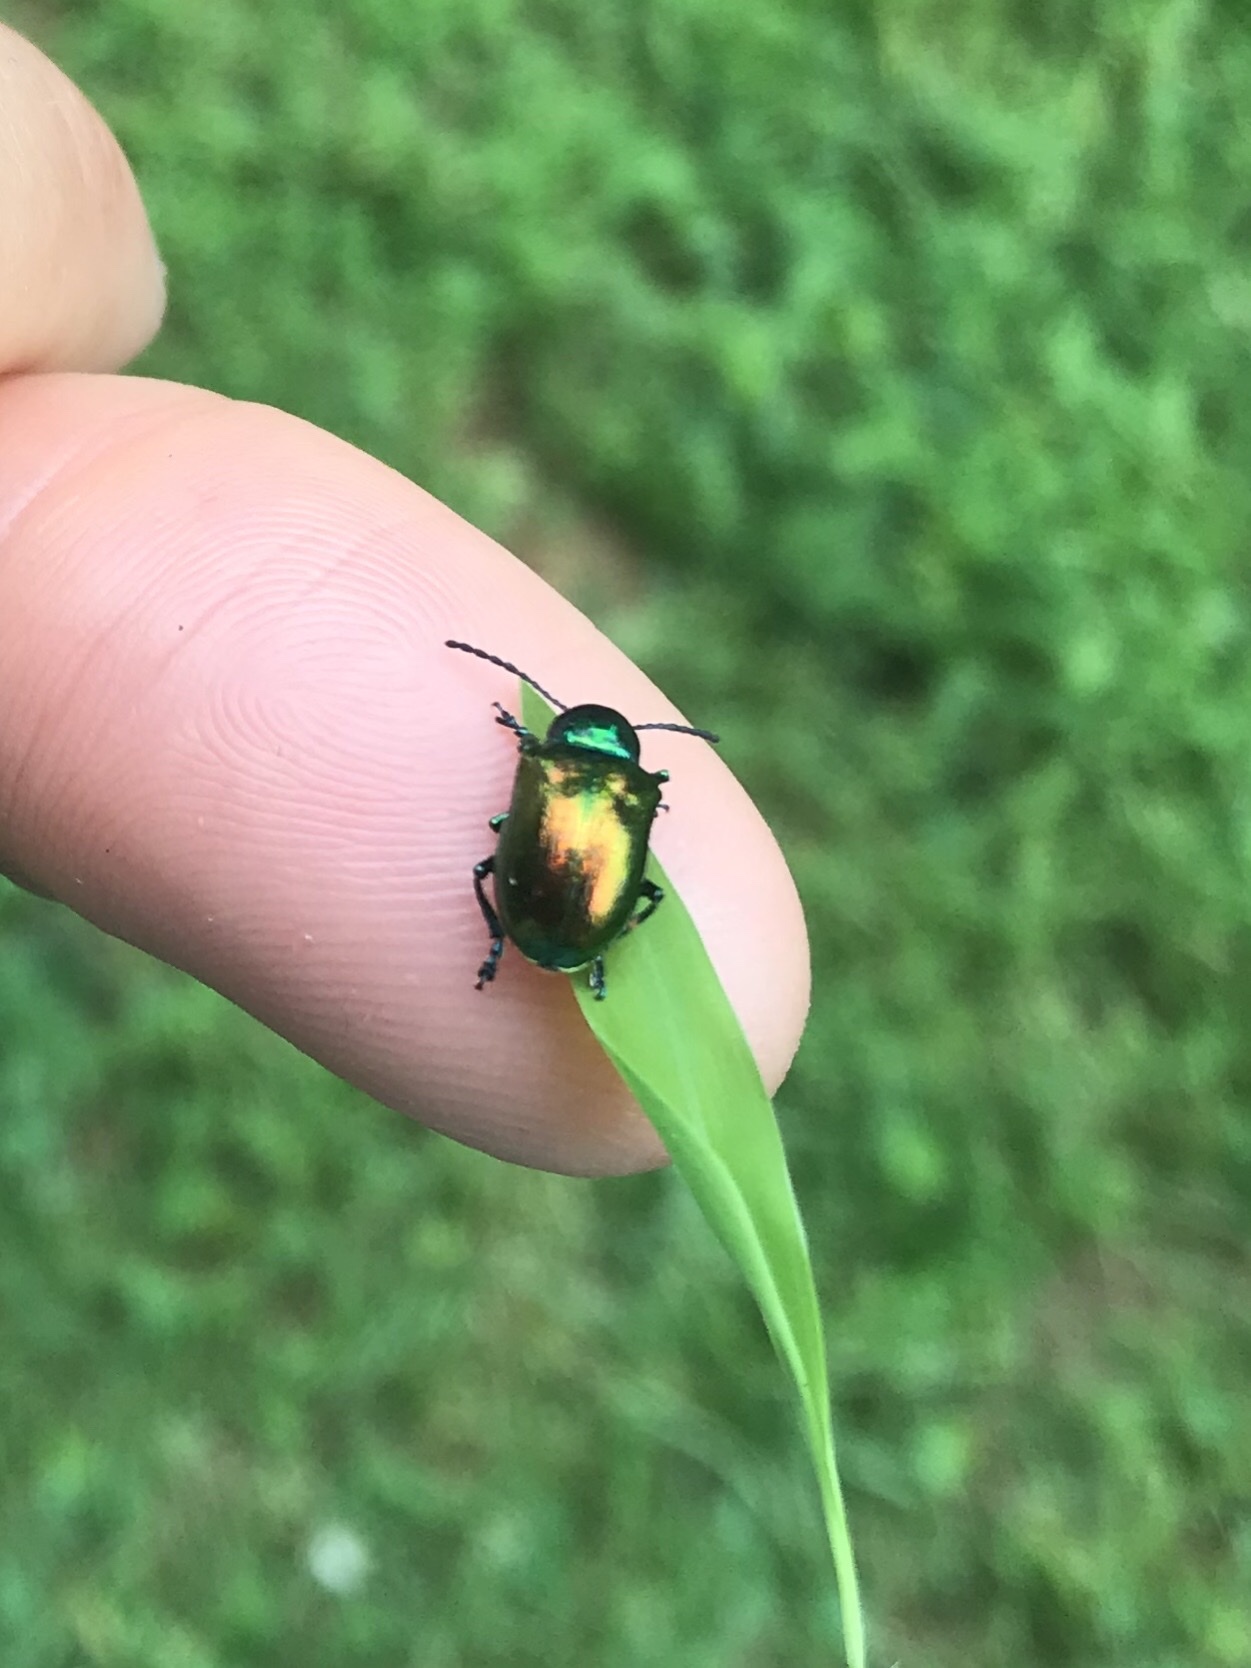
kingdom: Animalia
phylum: Arthropoda
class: Insecta
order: Coleoptera
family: Chrysomelidae
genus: Chrysochus
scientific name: Chrysochus auratus
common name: Dogbane leaf beetle
